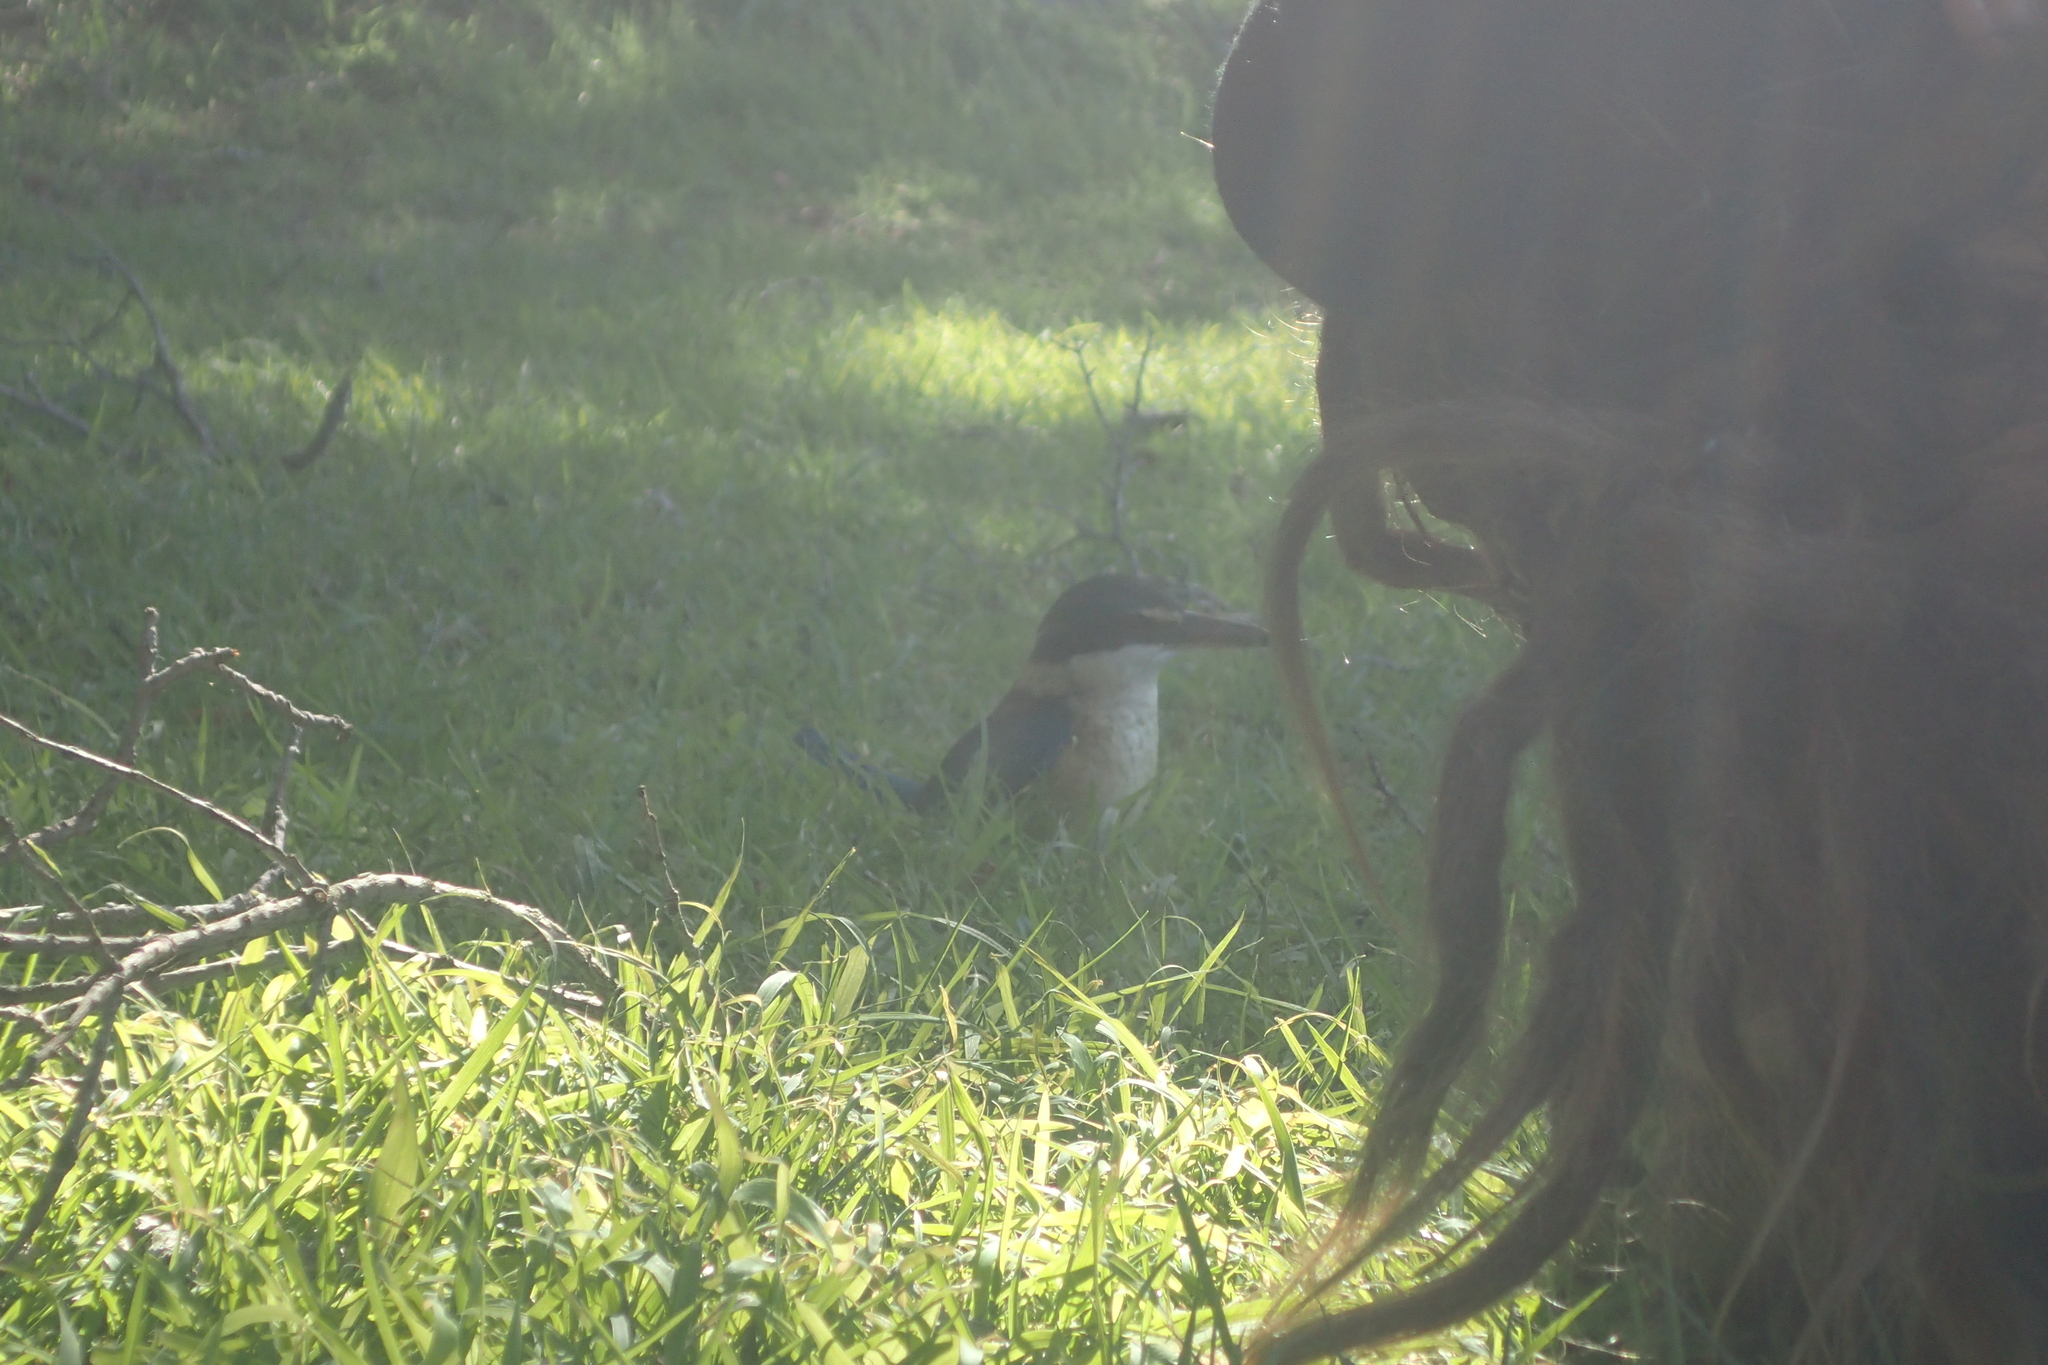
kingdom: Animalia
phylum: Chordata
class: Aves
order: Coraciiformes
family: Alcedinidae
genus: Todiramphus
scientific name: Todiramphus sanctus
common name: Sacred kingfisher
